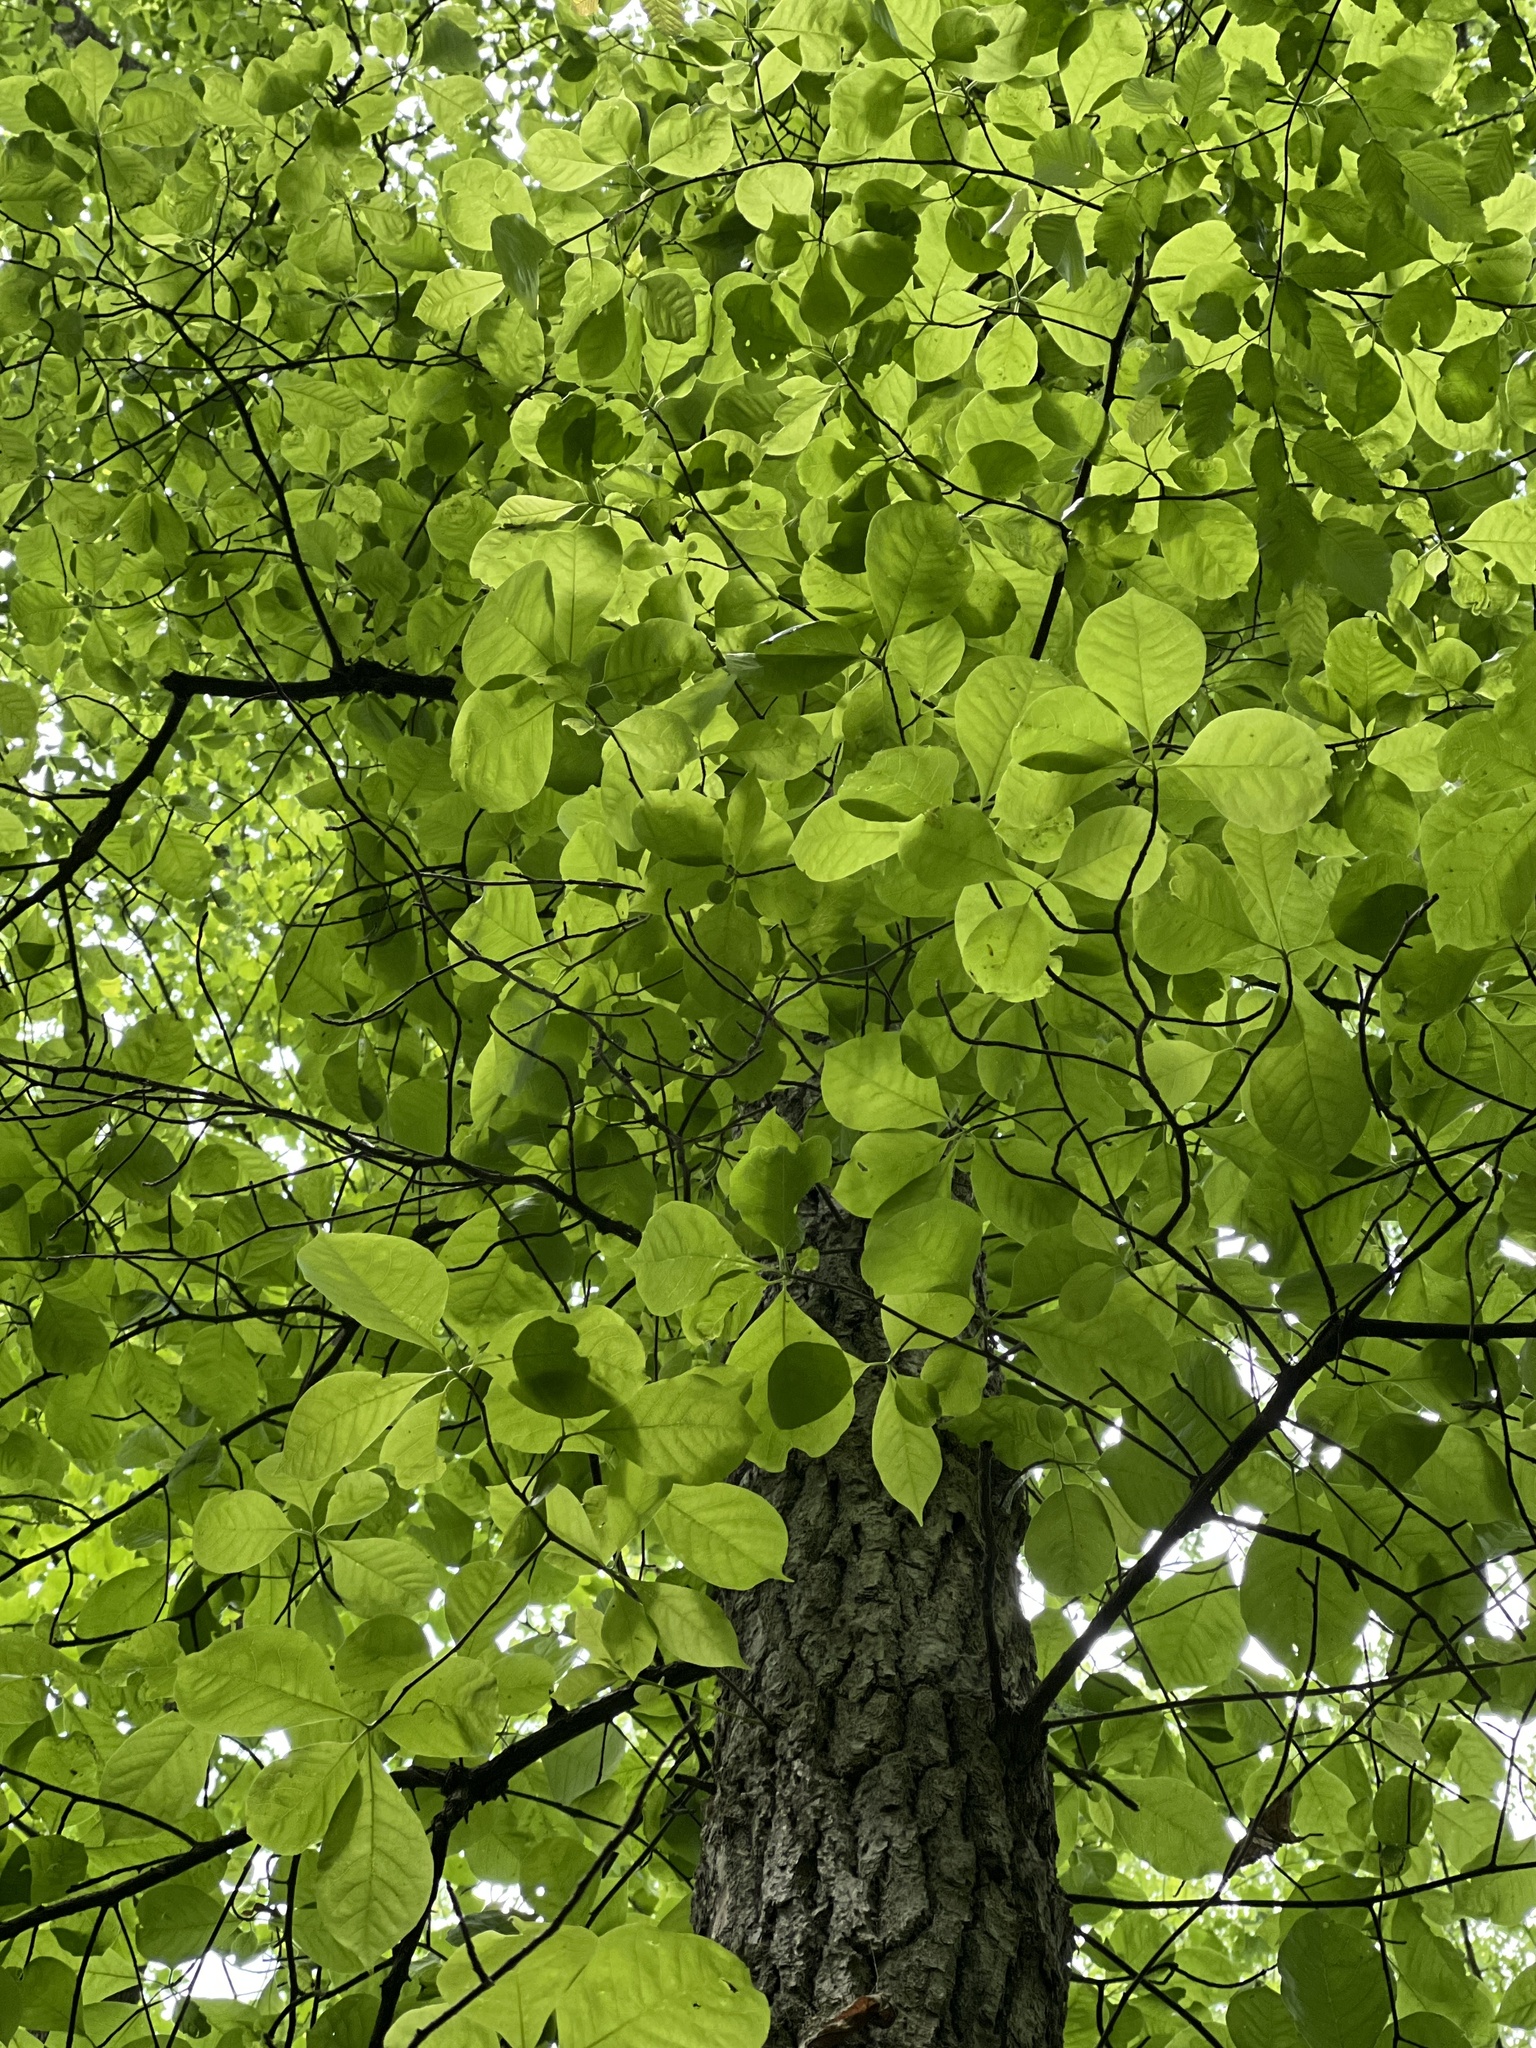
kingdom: Plantae
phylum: Tracheophyta
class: Magnoliopsida
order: Cornales
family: Nyssaceae
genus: Nyssa
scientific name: Nyssa sylvatica
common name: Black tupelo
